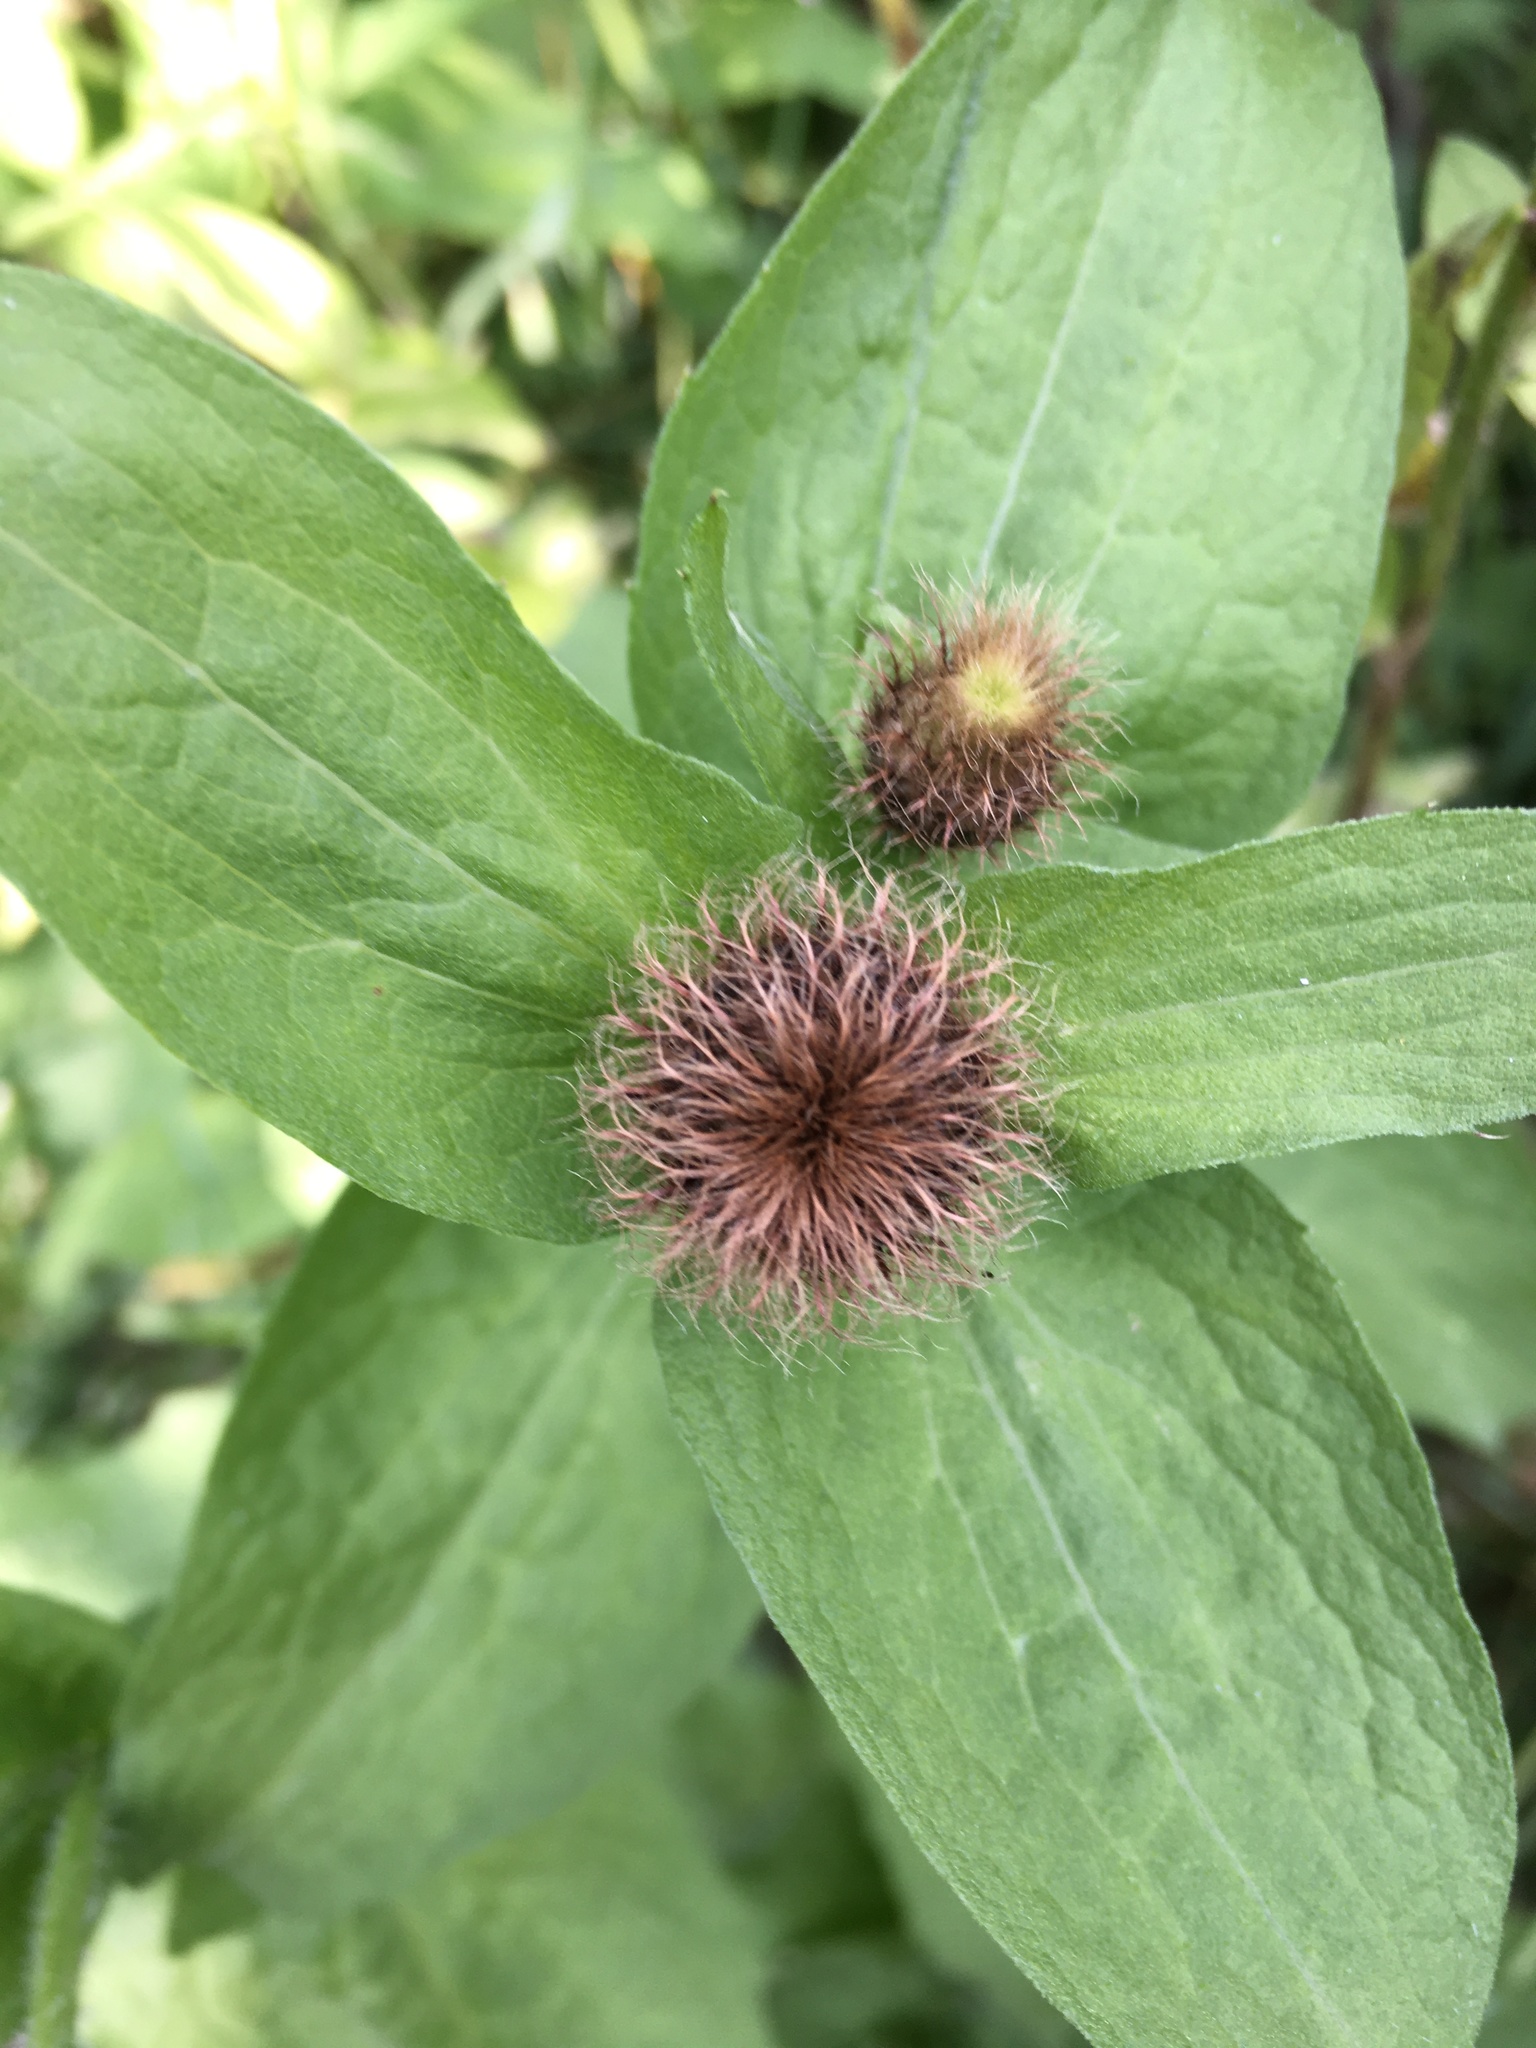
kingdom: Plantae
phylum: Tracheophyta
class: Magnoliopsida
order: Asterales
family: Asteraceae
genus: Centaurea
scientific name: Centaurea pseudophrygia
